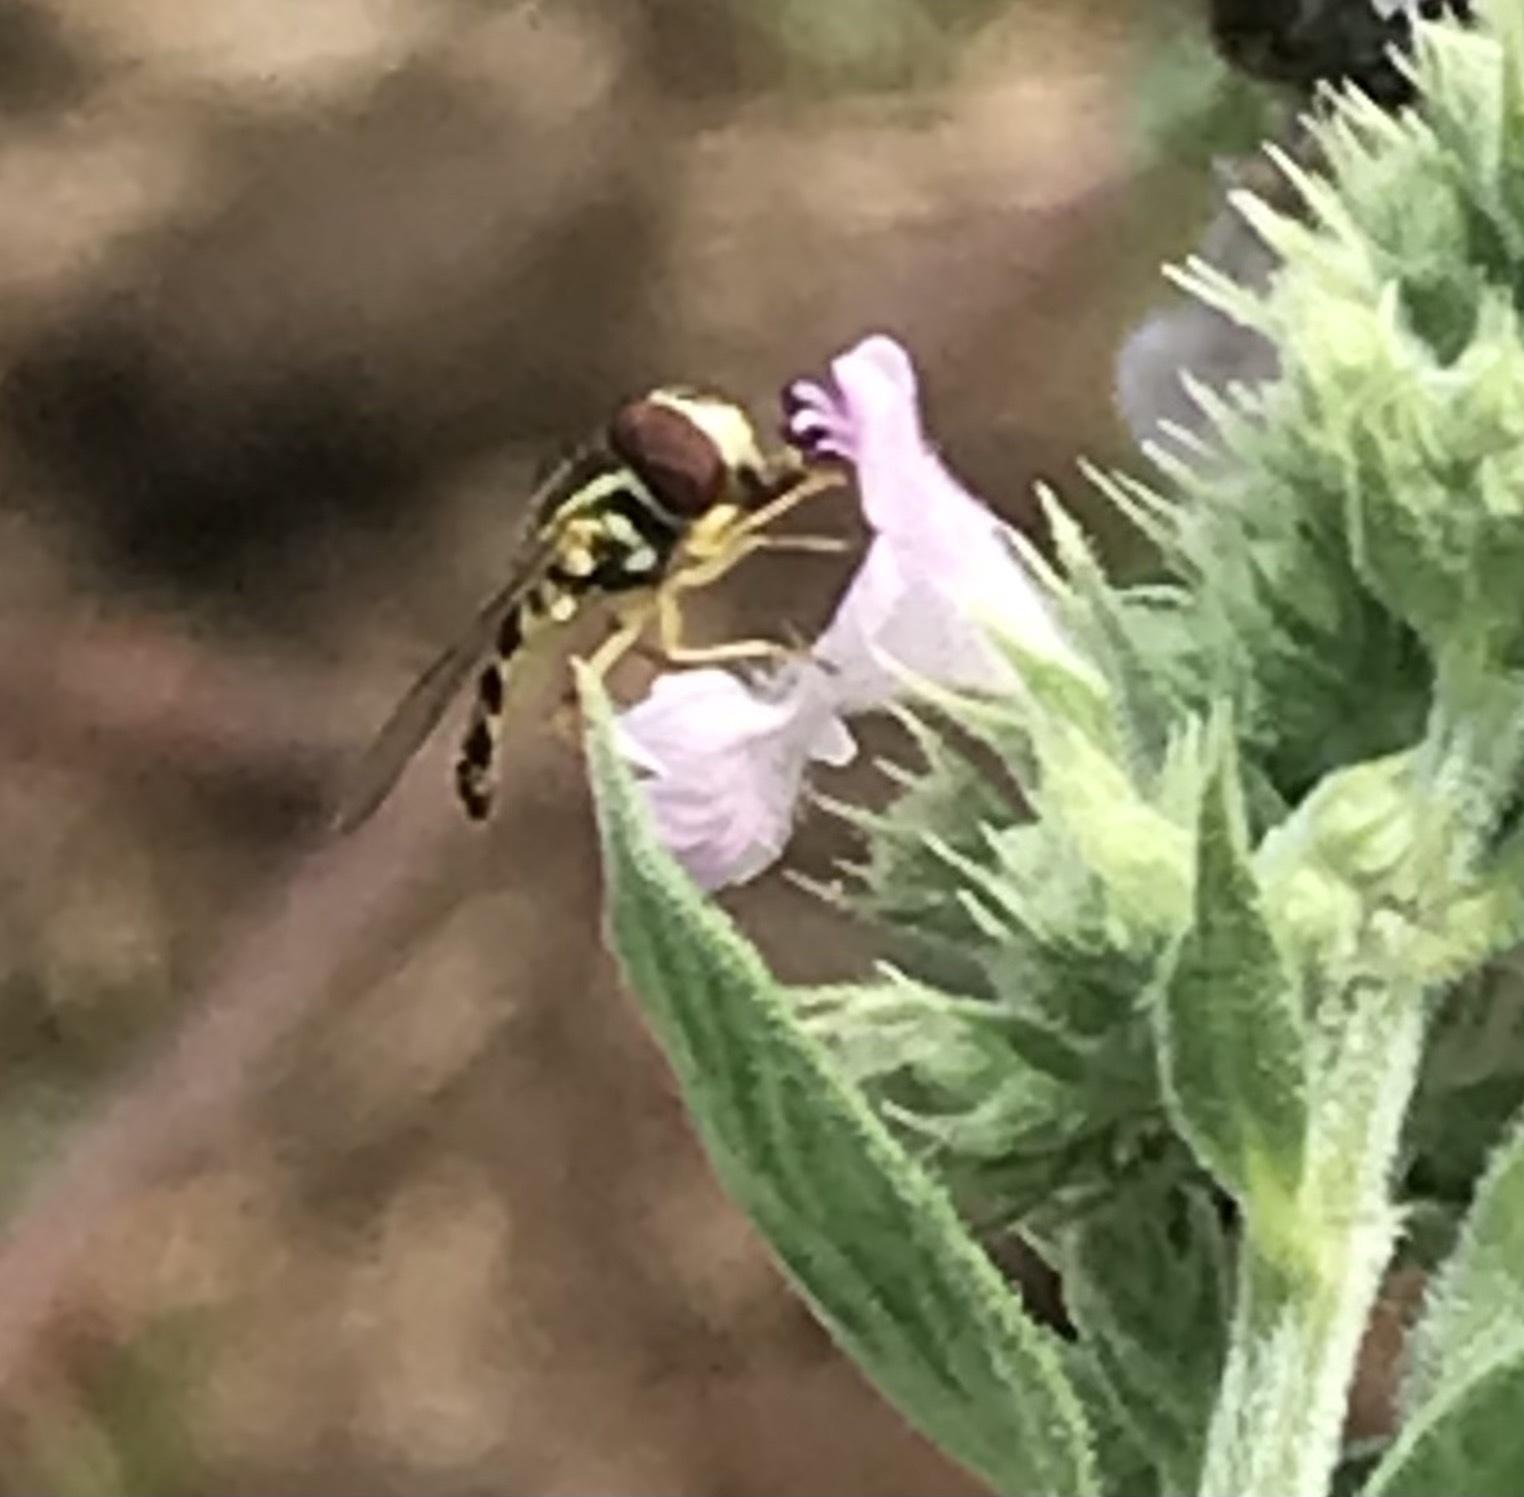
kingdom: Animalia
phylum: Arthropoda
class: Insecta
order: Diptera
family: Syrphidae
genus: Toxomerus
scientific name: Toxomerus geminatus
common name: Eastern calligrapher
